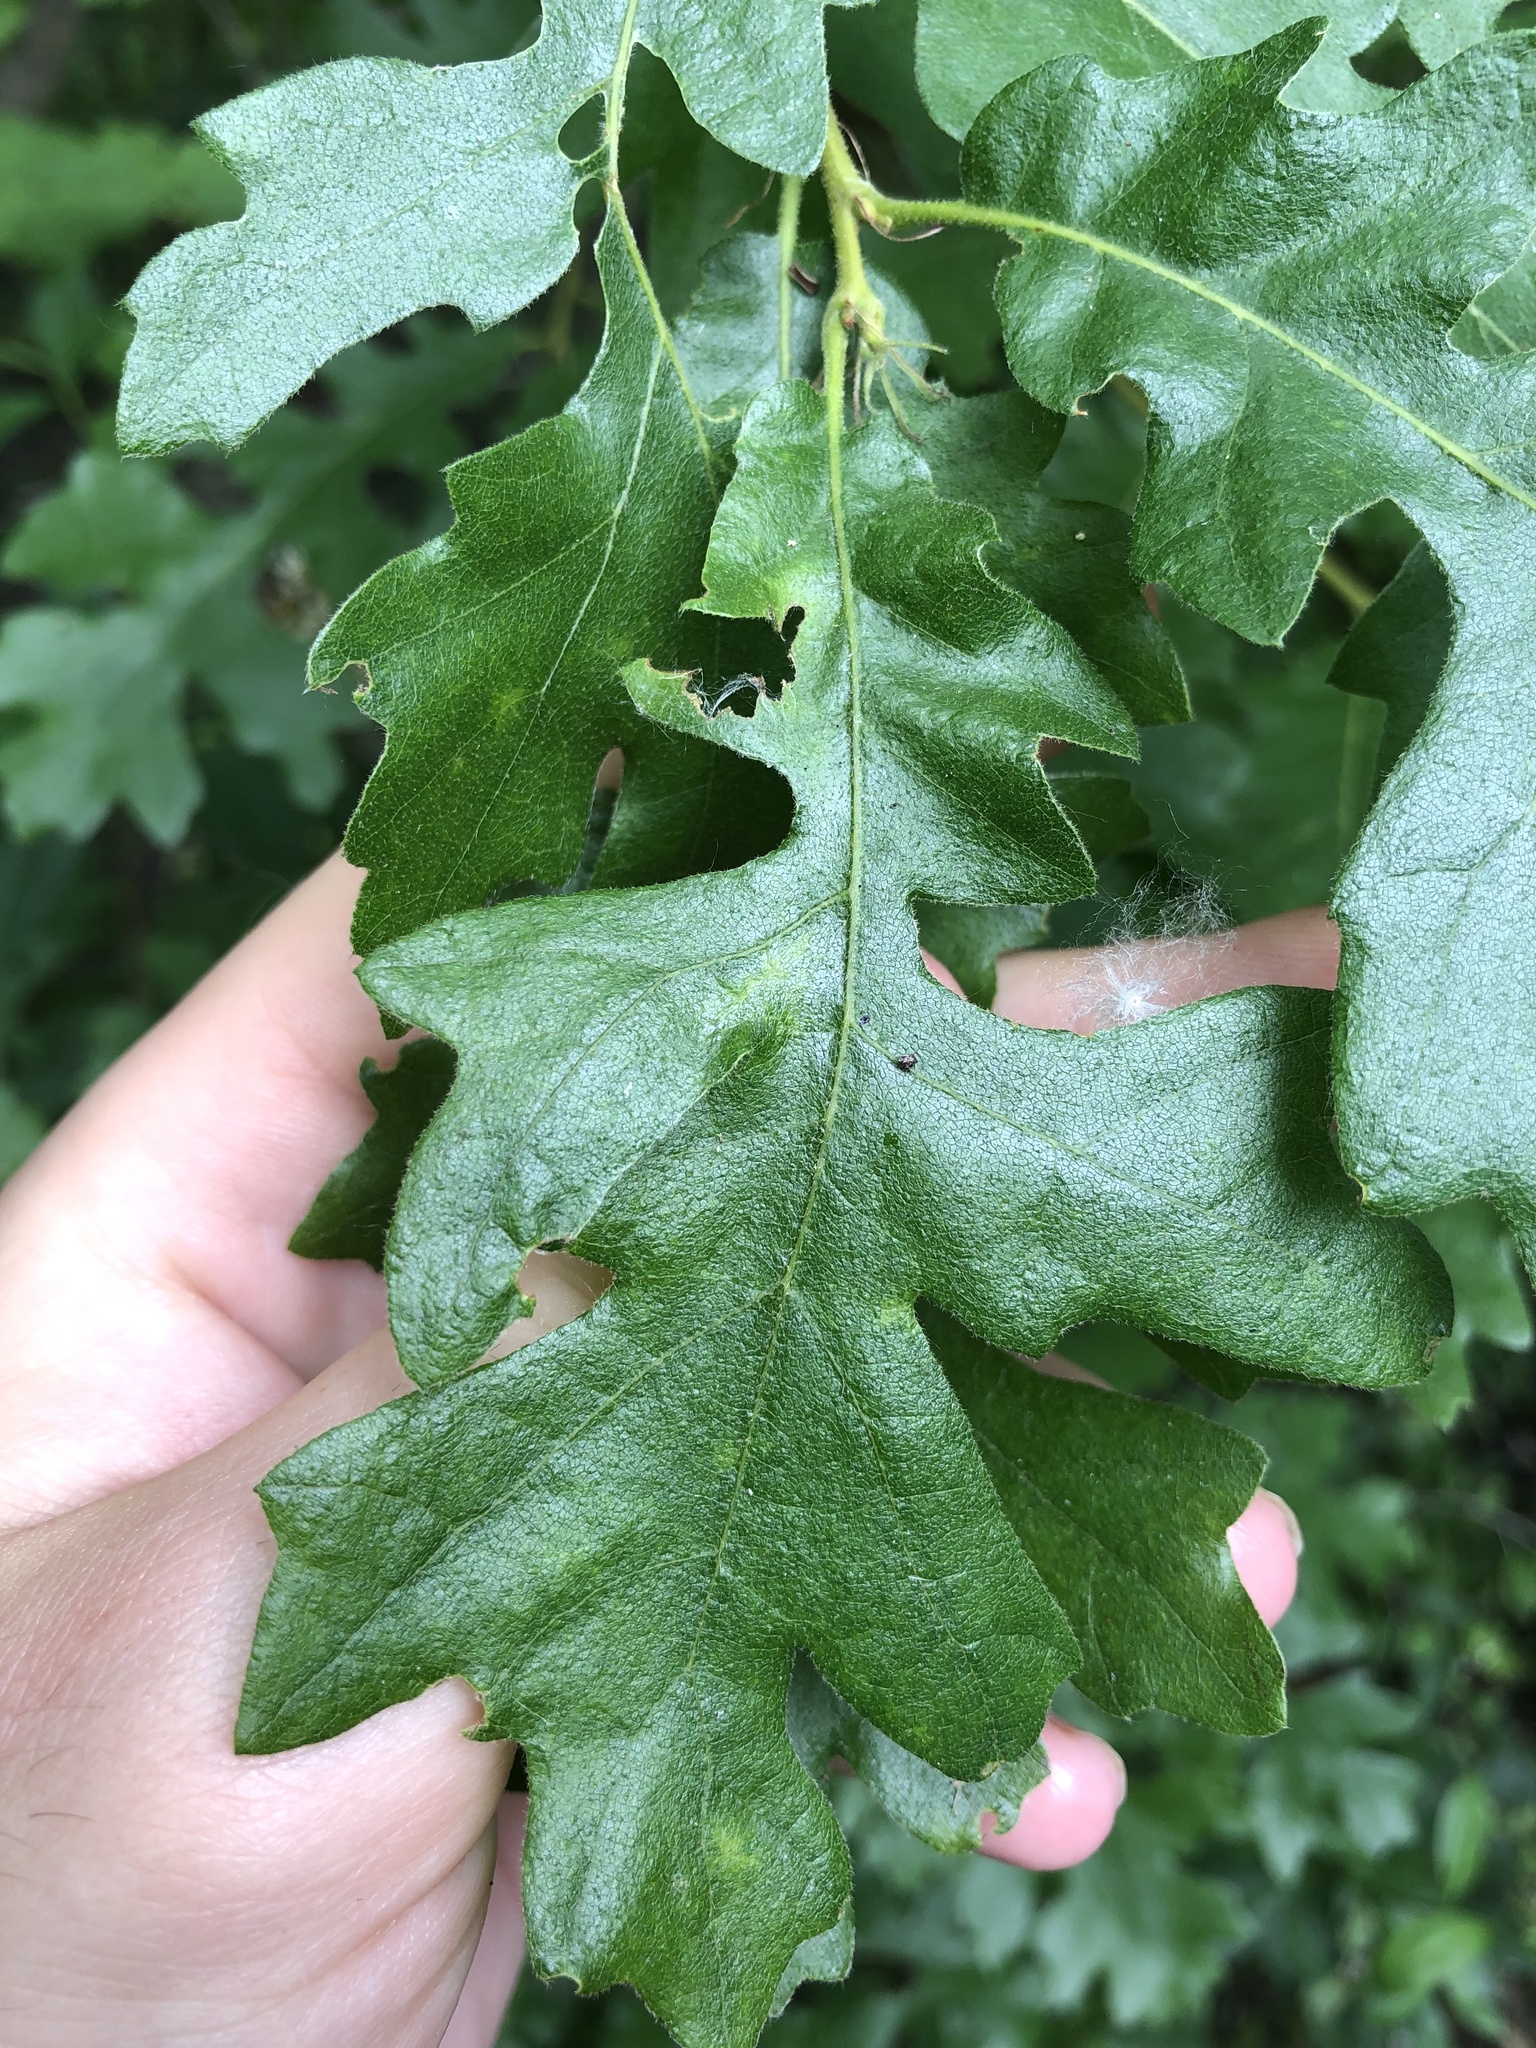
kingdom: Plantae
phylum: Tracheophyta
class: Magnoliopsida
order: Fagales
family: Fagaceae
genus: Quercus
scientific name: Quercus cerris
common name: Turkey oak
